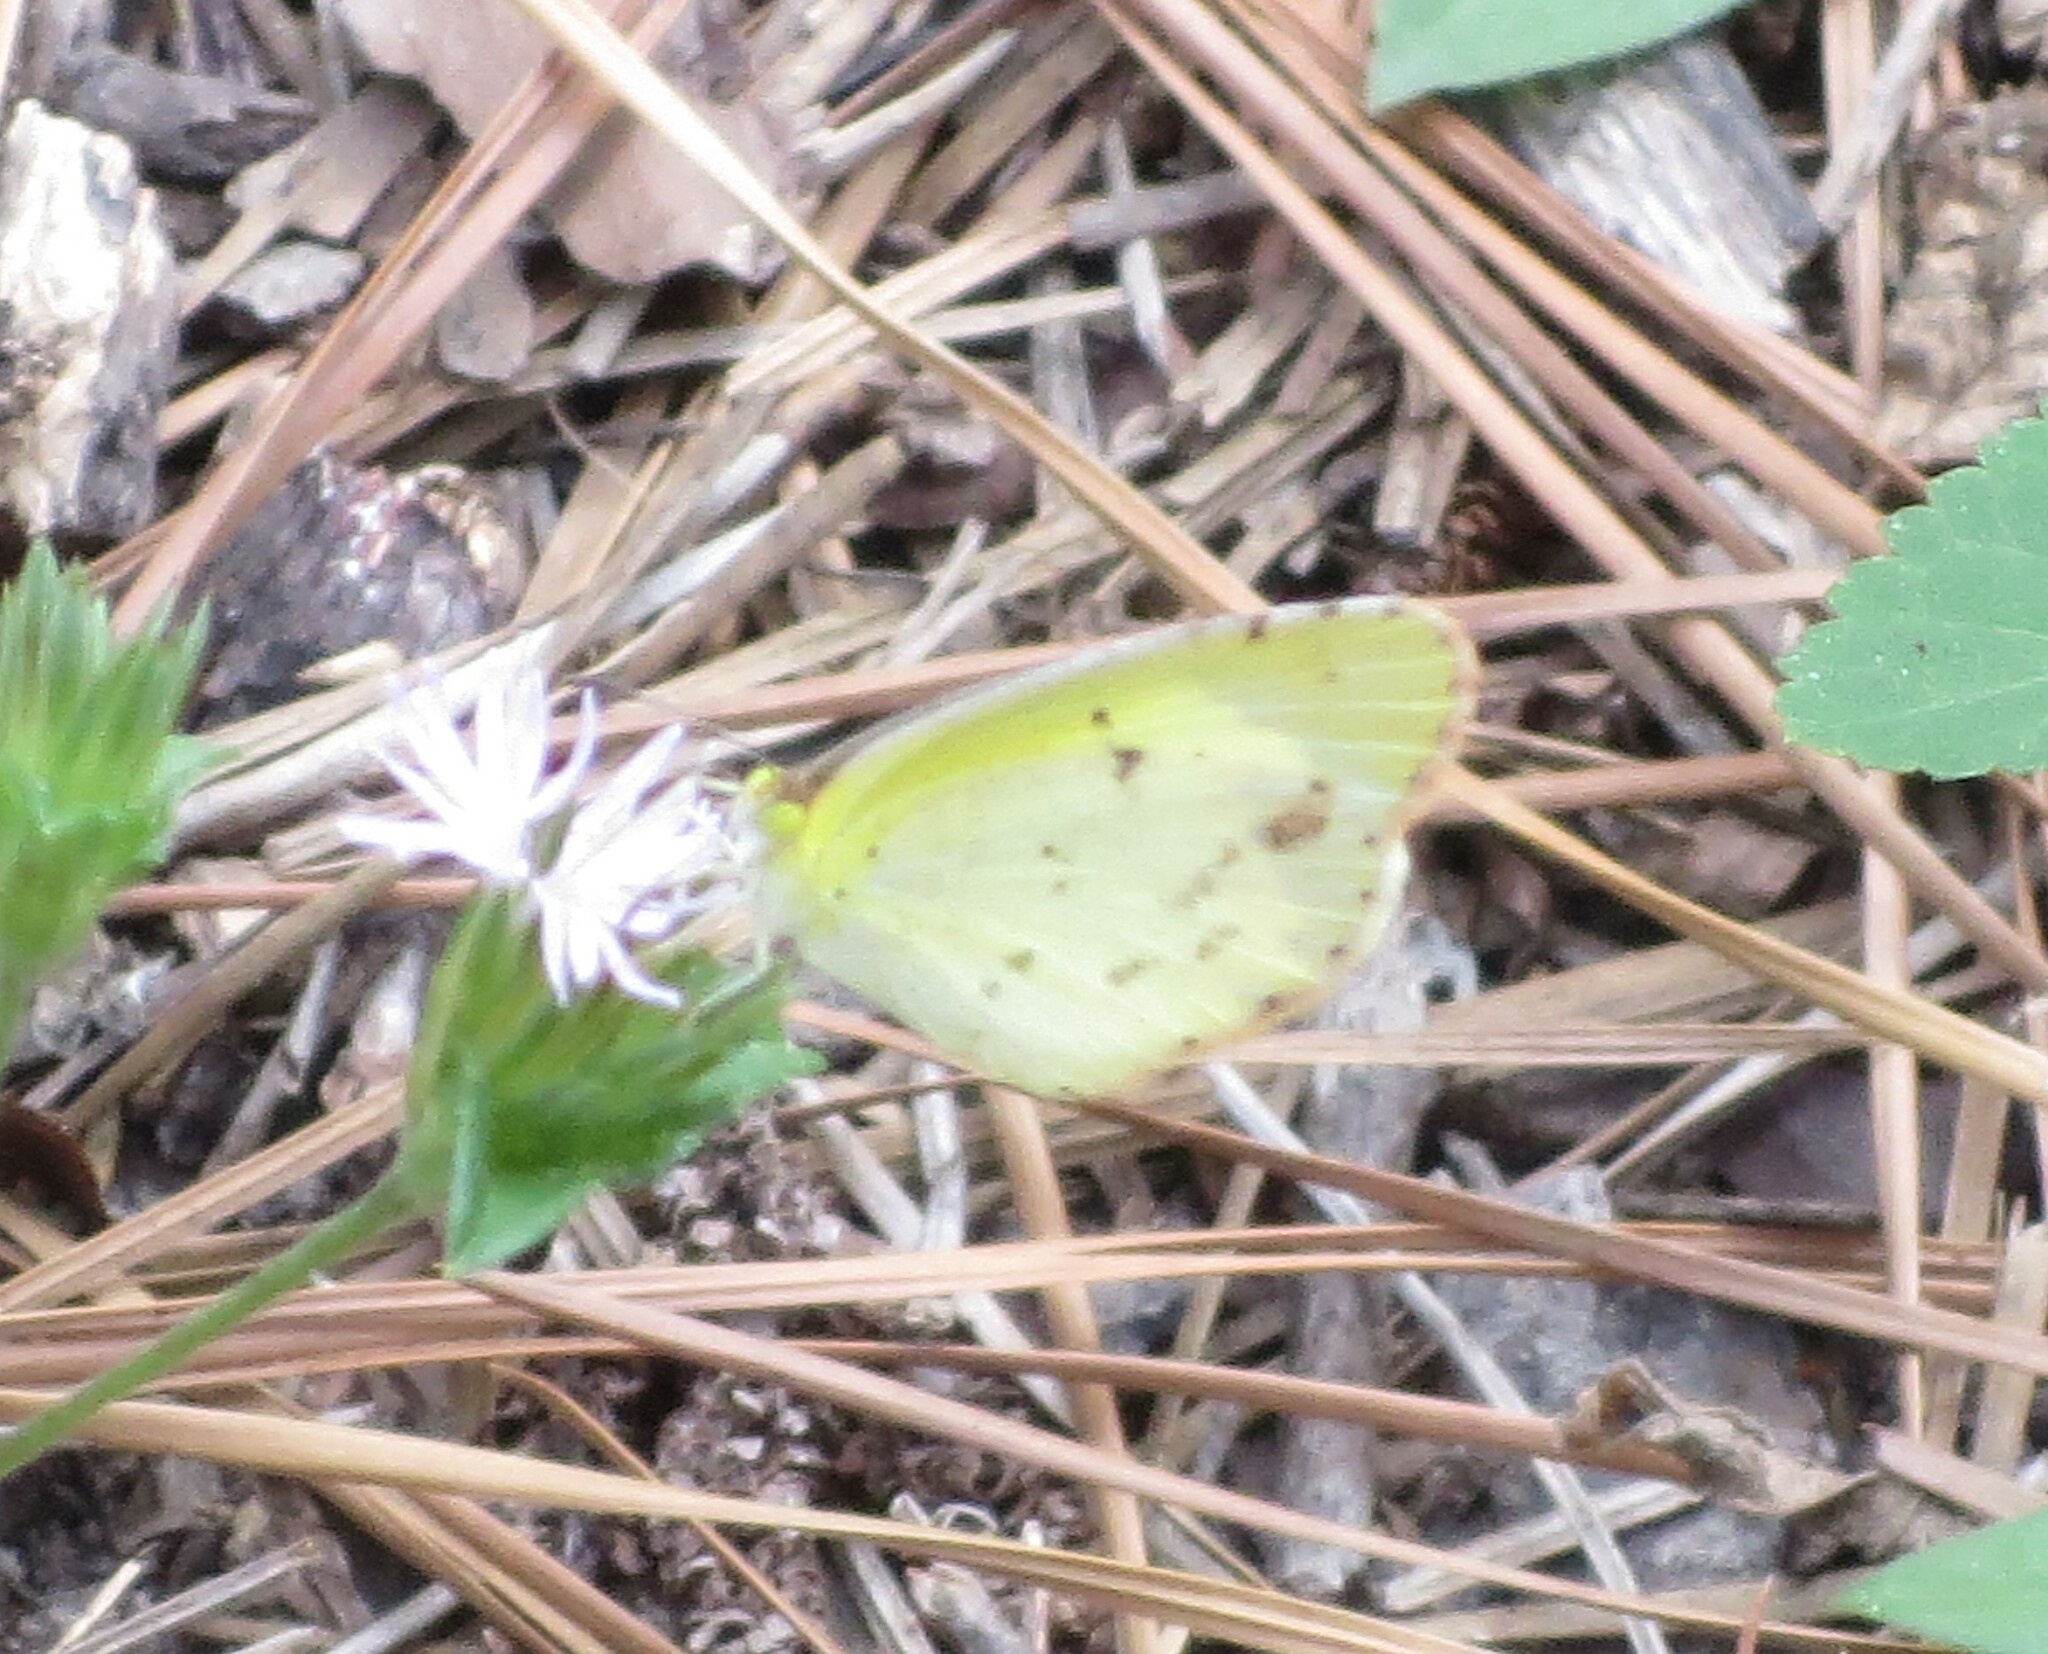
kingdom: Animalia
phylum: Arthropoda
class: Insecta
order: Lepidoptera
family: Pieridae
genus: Pyrisitia
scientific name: Pyrisitia lisa
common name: Little yellow
